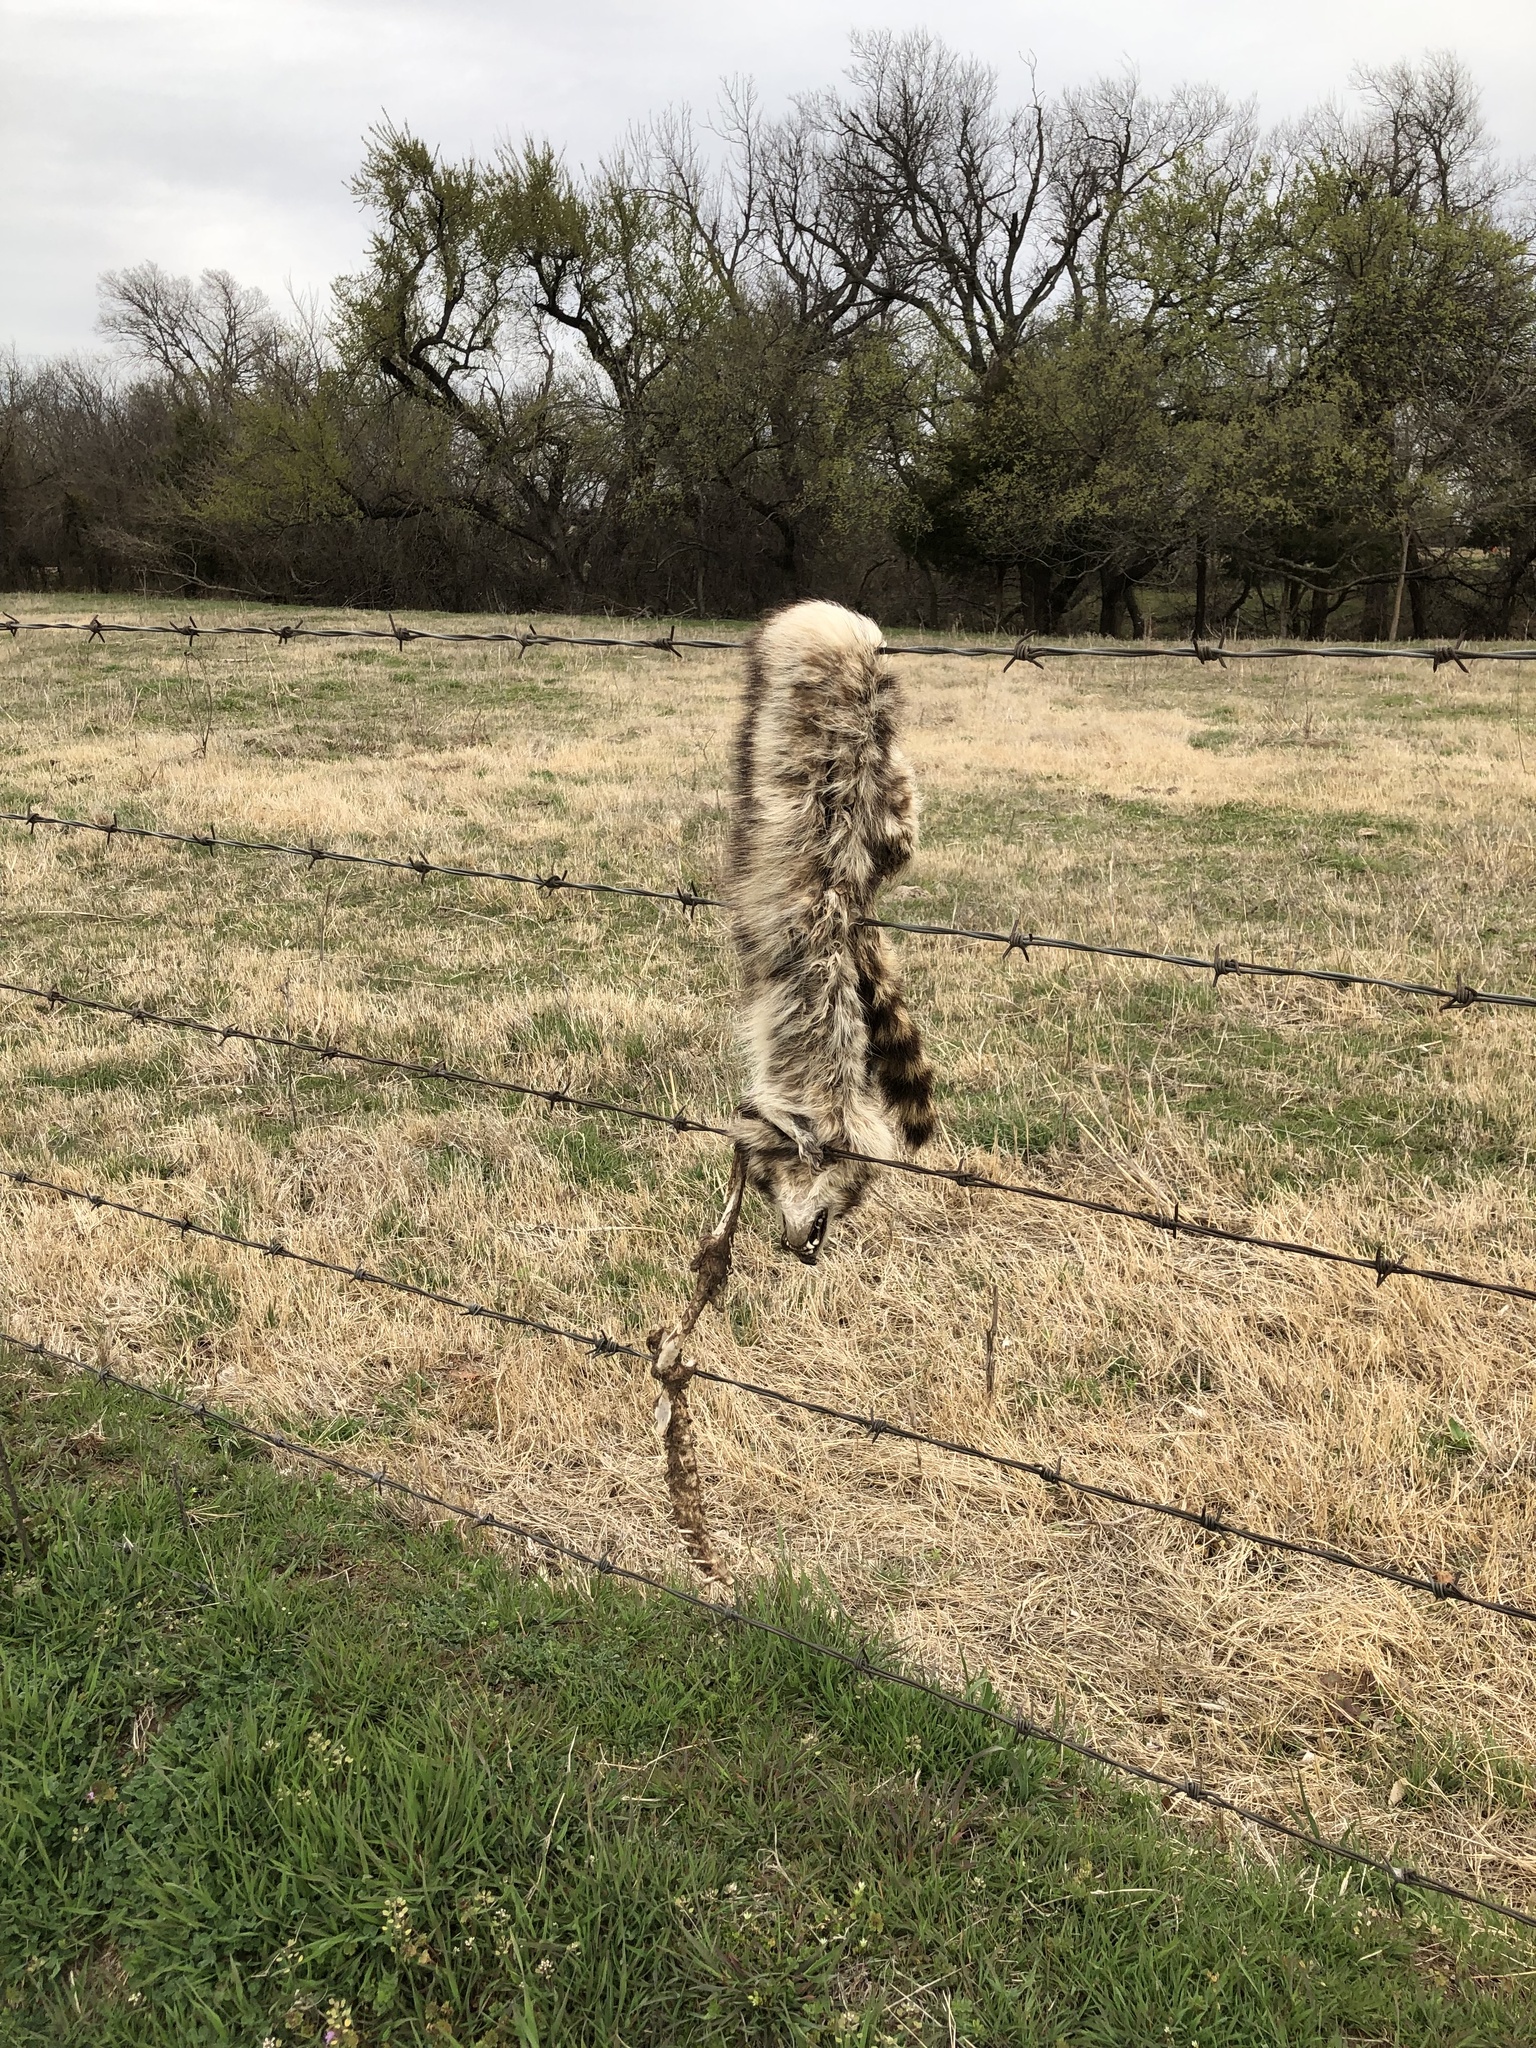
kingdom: Animalia
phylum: Chordata
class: Mammalia
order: Carnivora
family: Procyonidae
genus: Procyon
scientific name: Procyon lotor
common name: Raccoon
